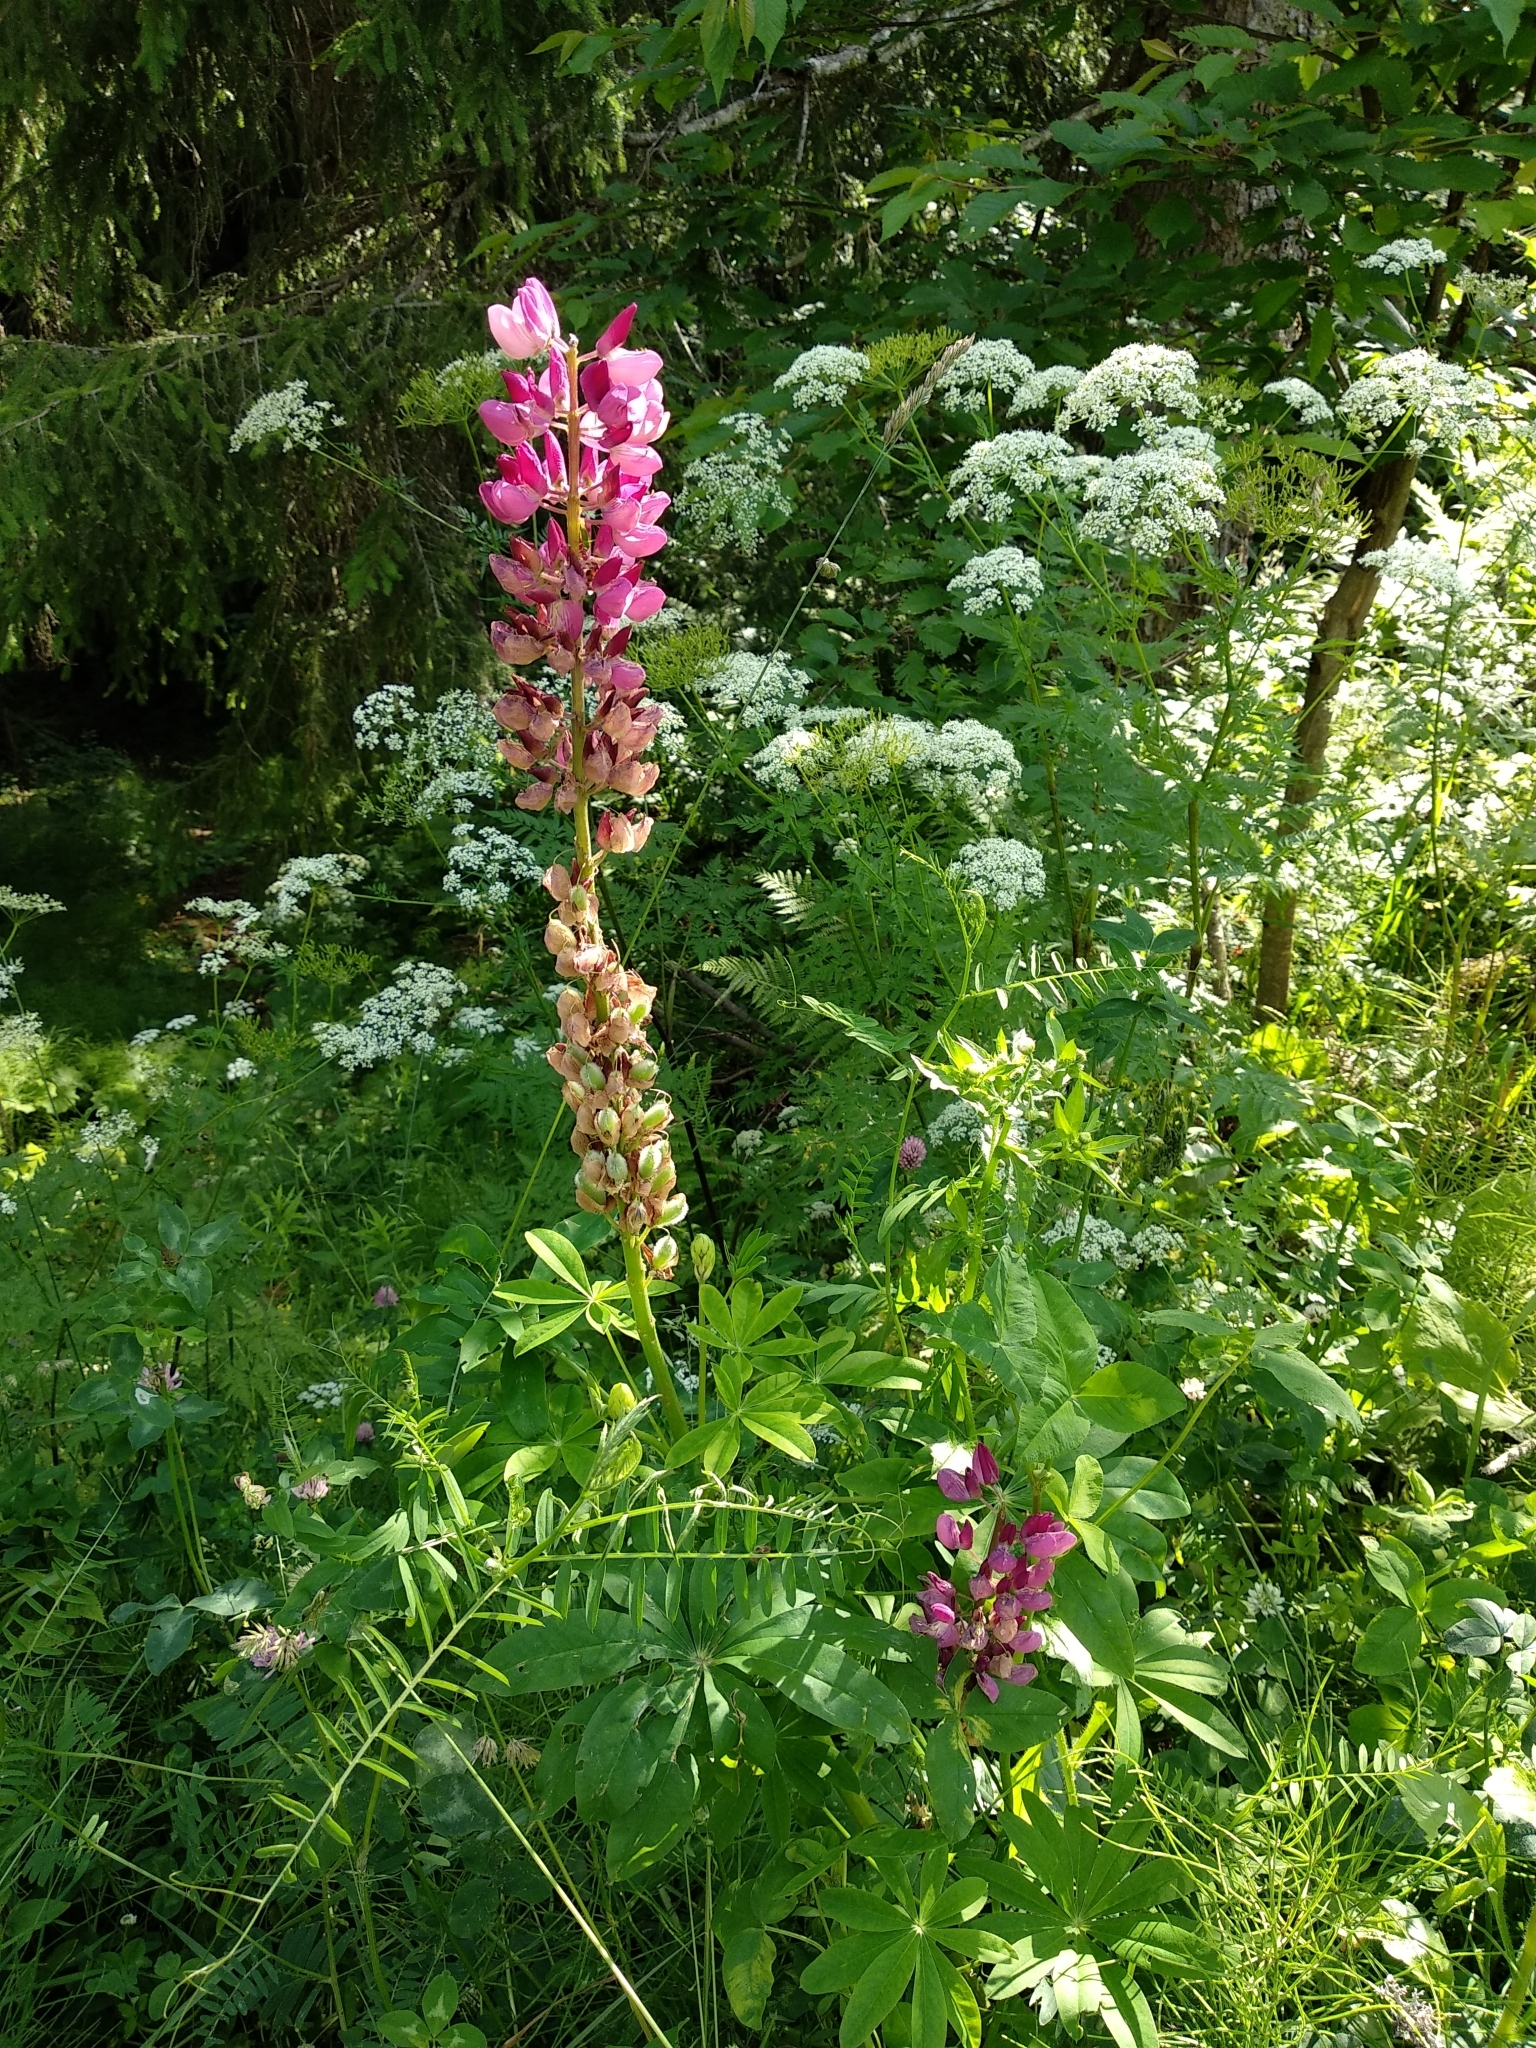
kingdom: Plantae
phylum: Tracheophyta
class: Magnoliopsida
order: Fabales
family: Fabaceae
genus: Lupinus
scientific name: Lupinus polyphyllus
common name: Garden lupin
